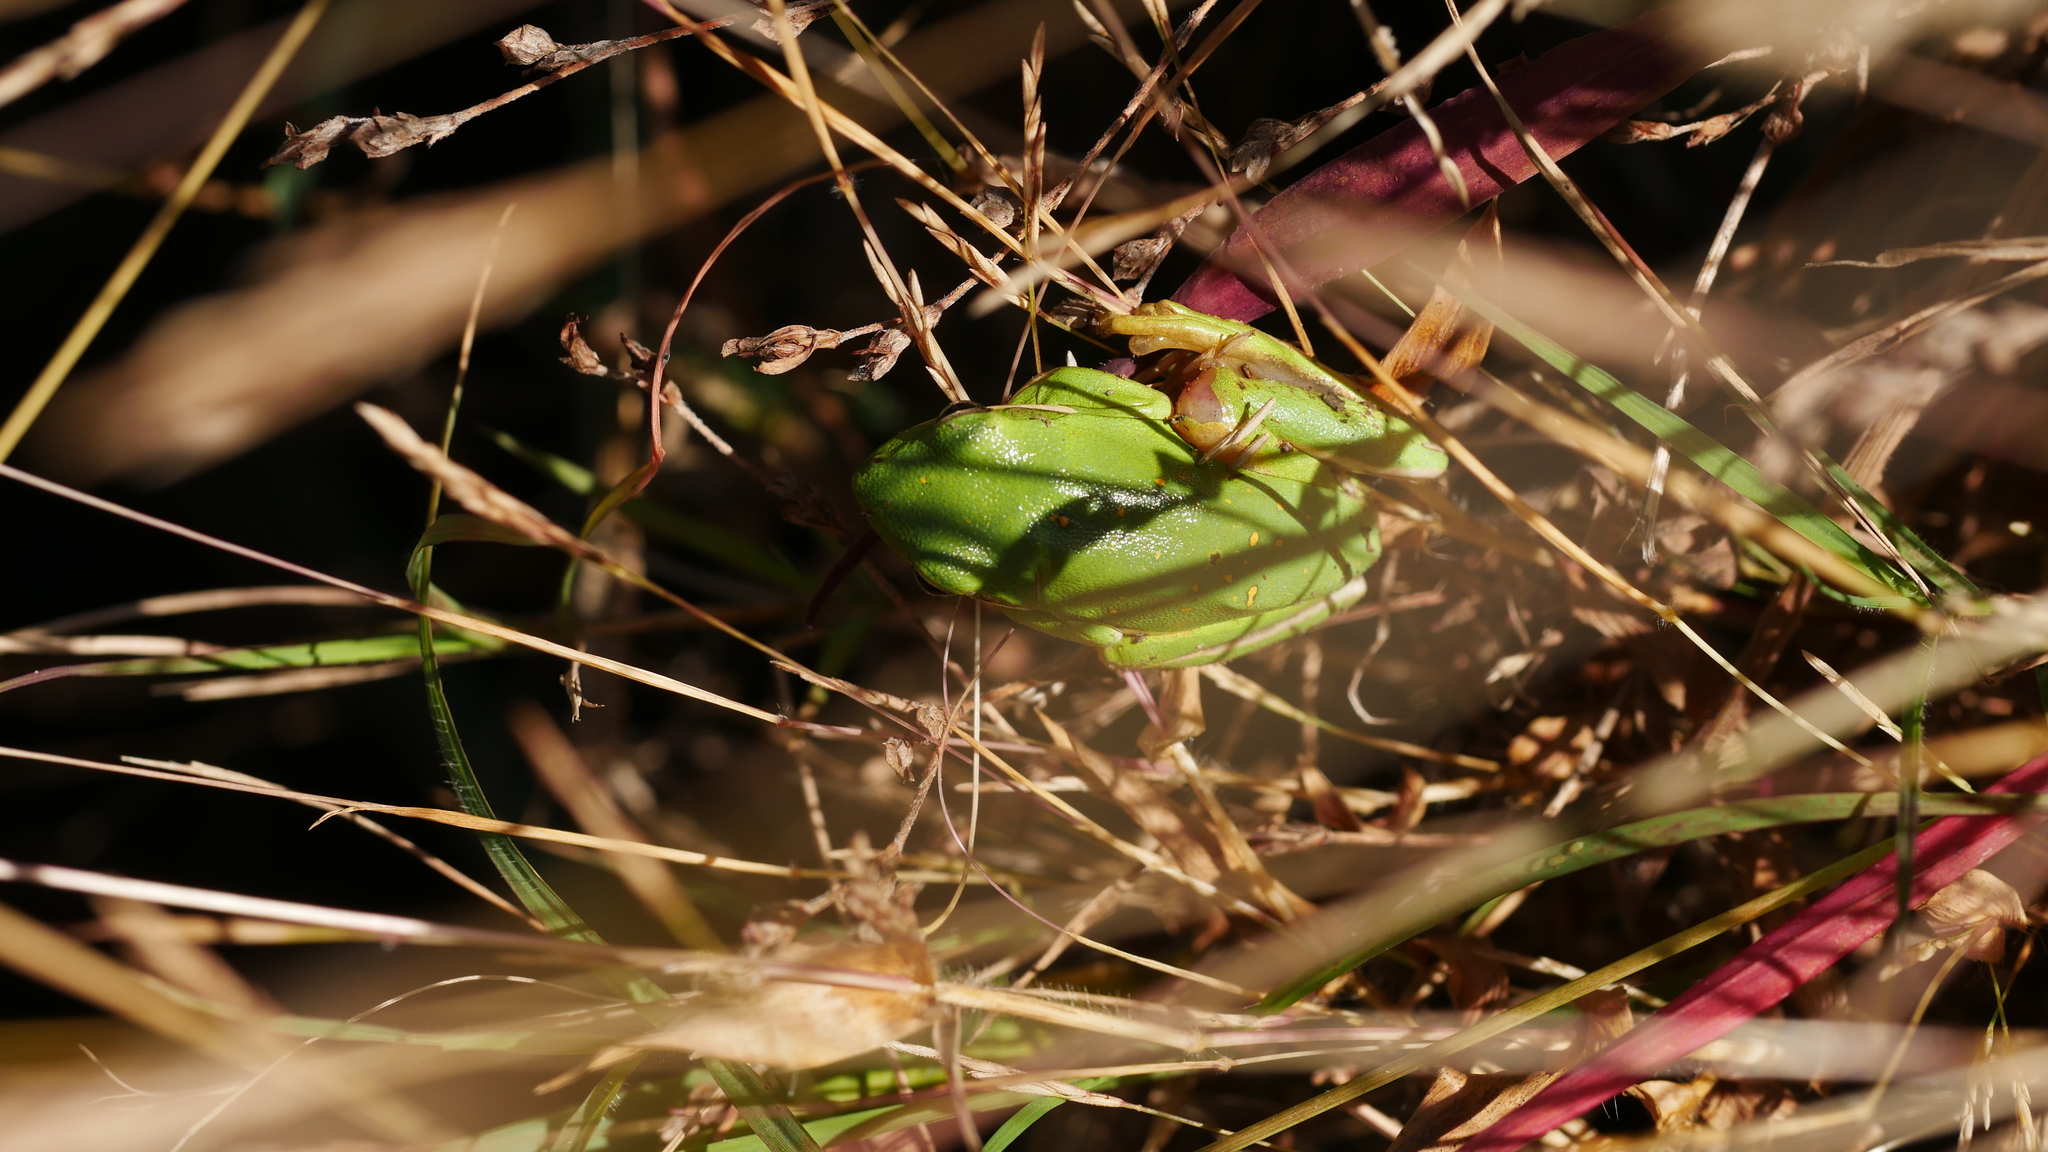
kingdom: Animalia
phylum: Chordata
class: Amphibia
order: Anura
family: Hylidae
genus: Dryophytes
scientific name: Dryophytes cinereus
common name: Green treefrog
